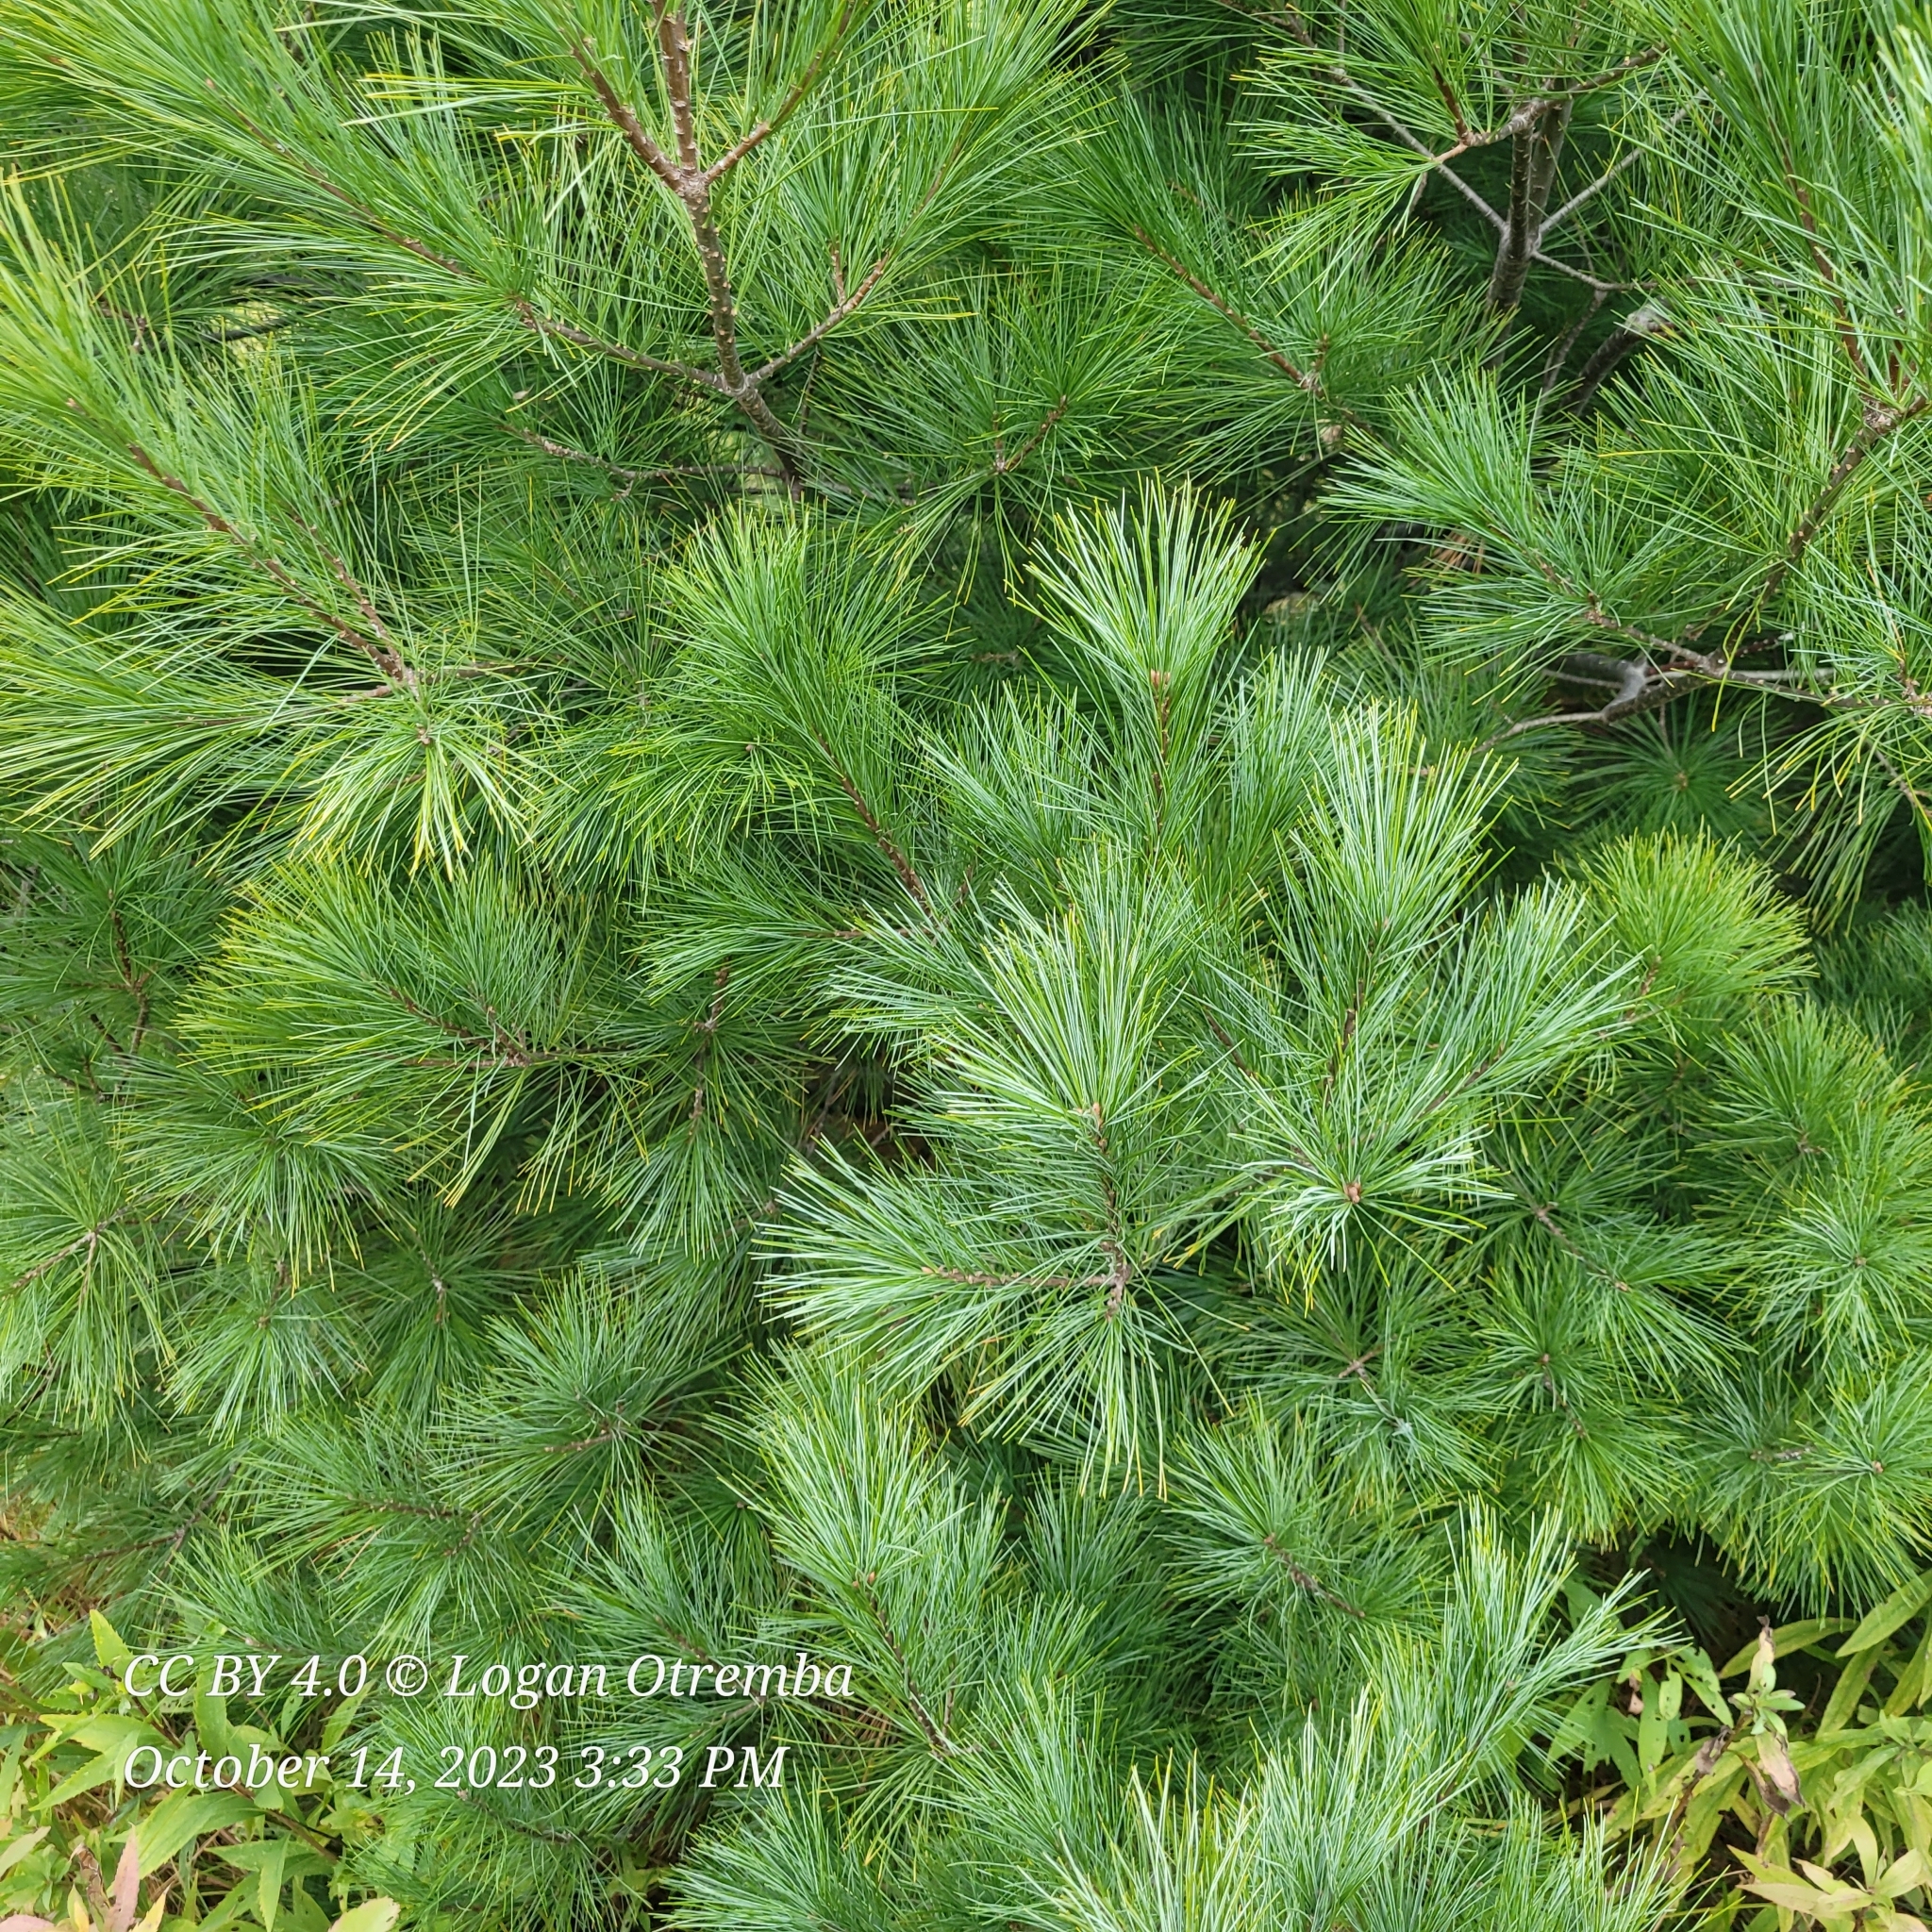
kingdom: Plantae
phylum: Tracheophyta
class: Pinopsida
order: Pinales
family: Pinaceae
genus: Pinus
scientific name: Pinus strobus
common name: Weymouth pine
